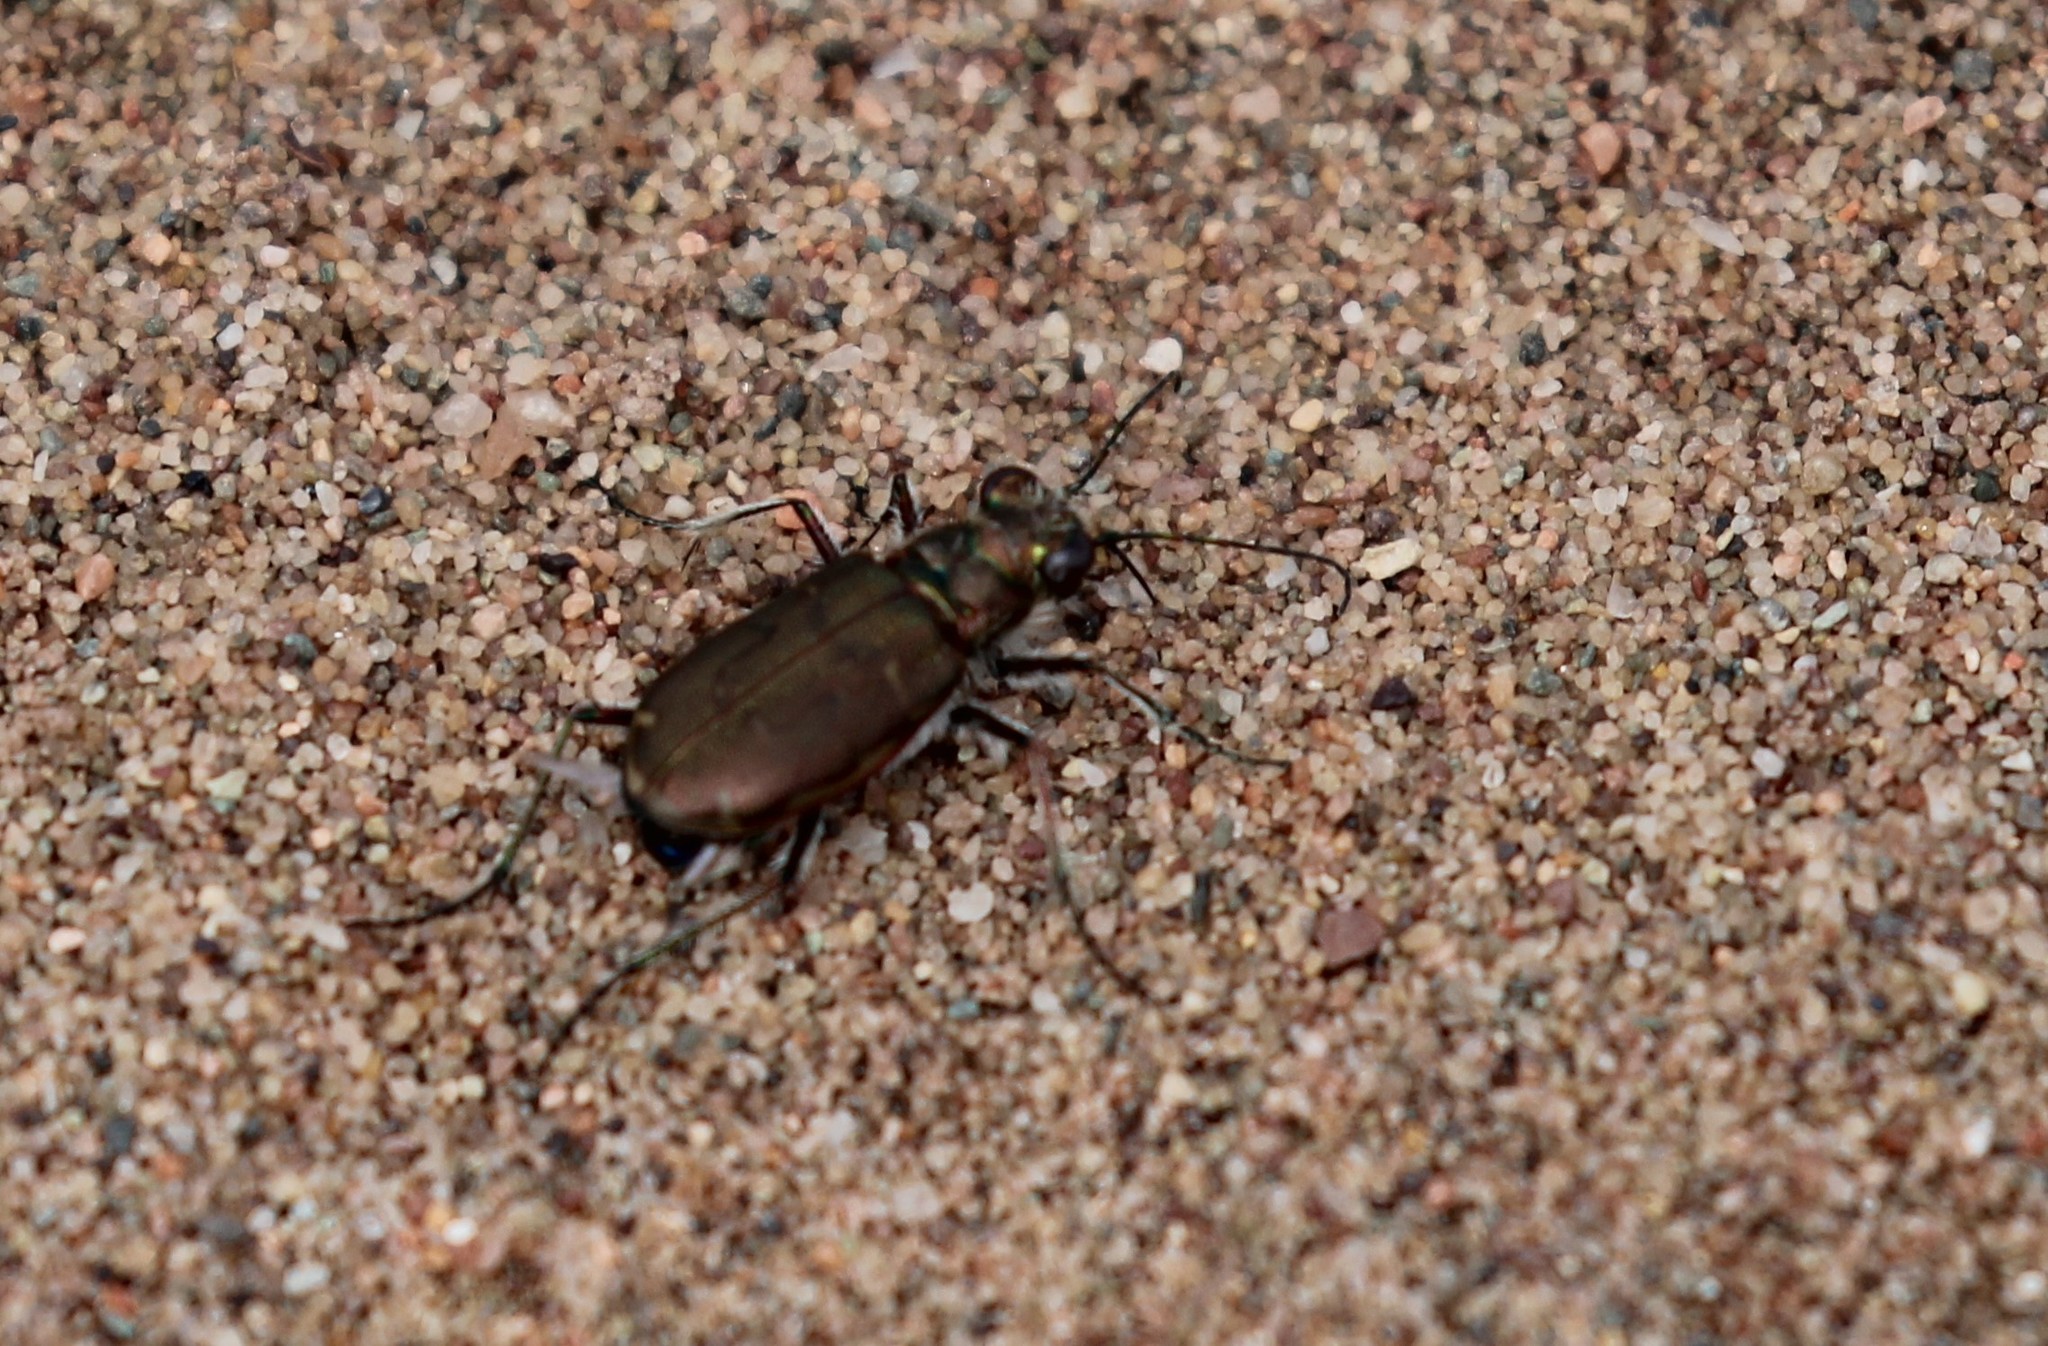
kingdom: Animalia
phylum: Arthropoda
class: Insecta
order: Coleoptera
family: Carabidae
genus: Cicindela
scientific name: Cicindela hirticollis
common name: Hairy-necked tiger beetle
